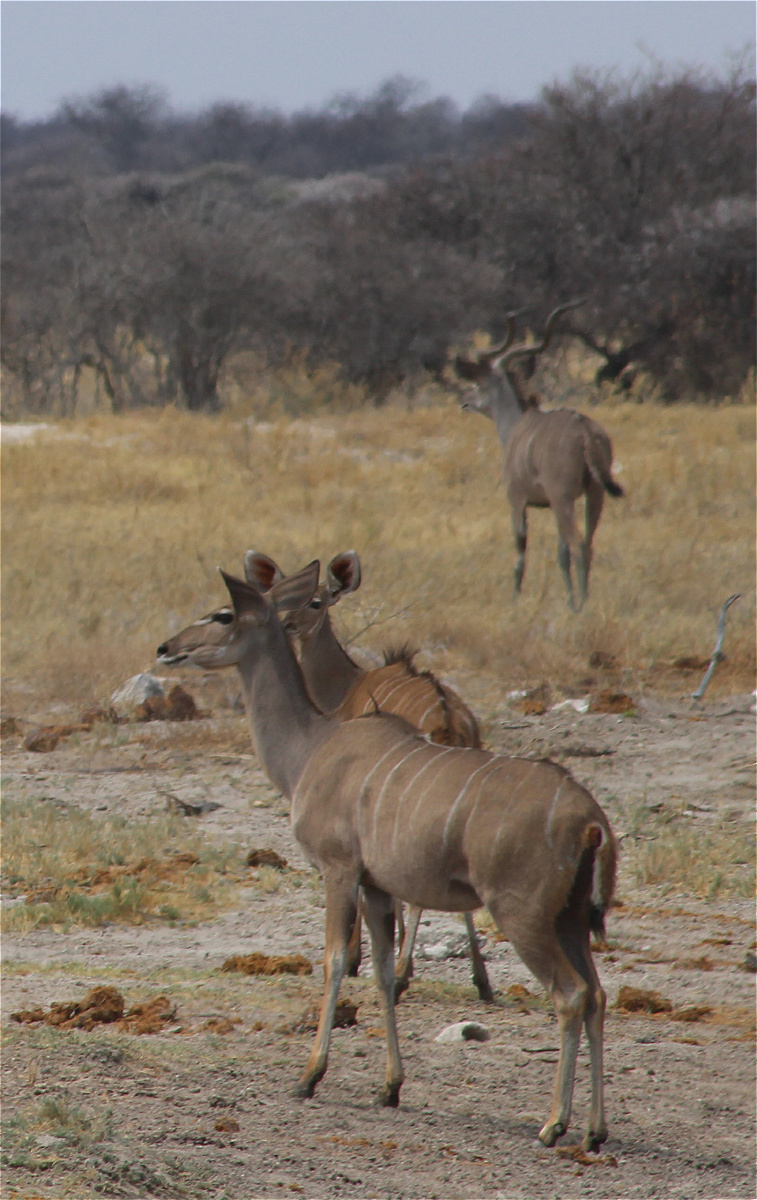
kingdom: Animalia
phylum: Chordata
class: Mammalia
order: Artiodactyla
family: Bovidae
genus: Tragelaphus
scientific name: Tragelaphus strepsiceros
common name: Greater kudu
